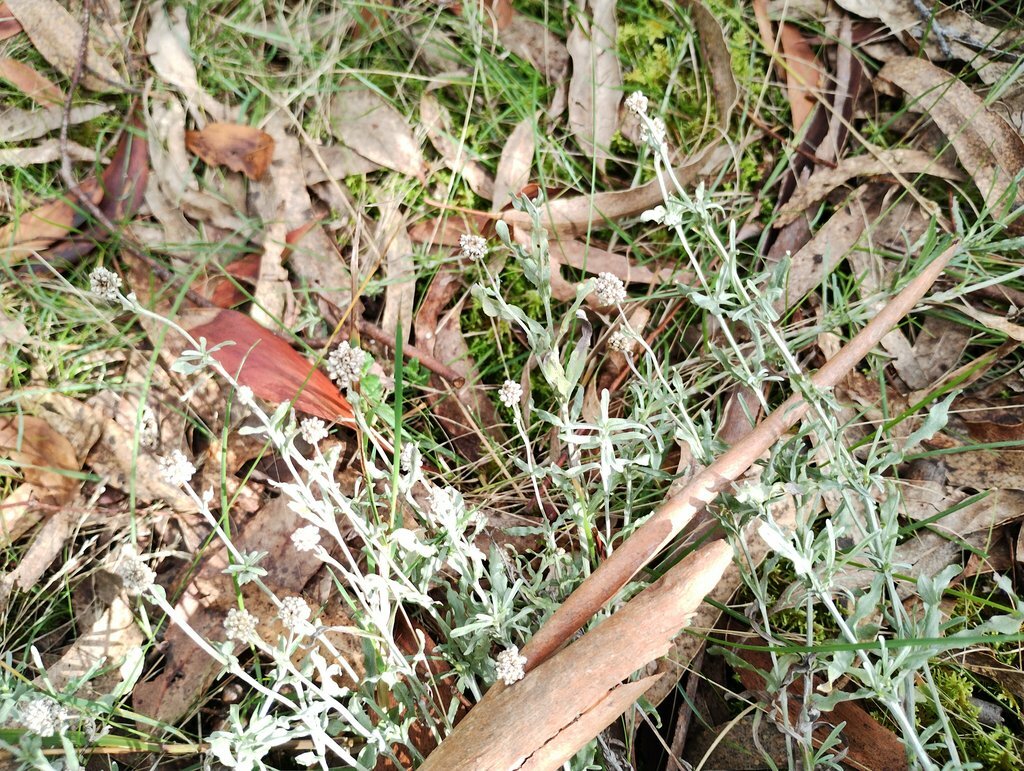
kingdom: Plantae
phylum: Tracheophyta
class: Magnoliopsida
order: Asterales
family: Asteraceae
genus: Calocephalus
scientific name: Calocephalus lacteus
